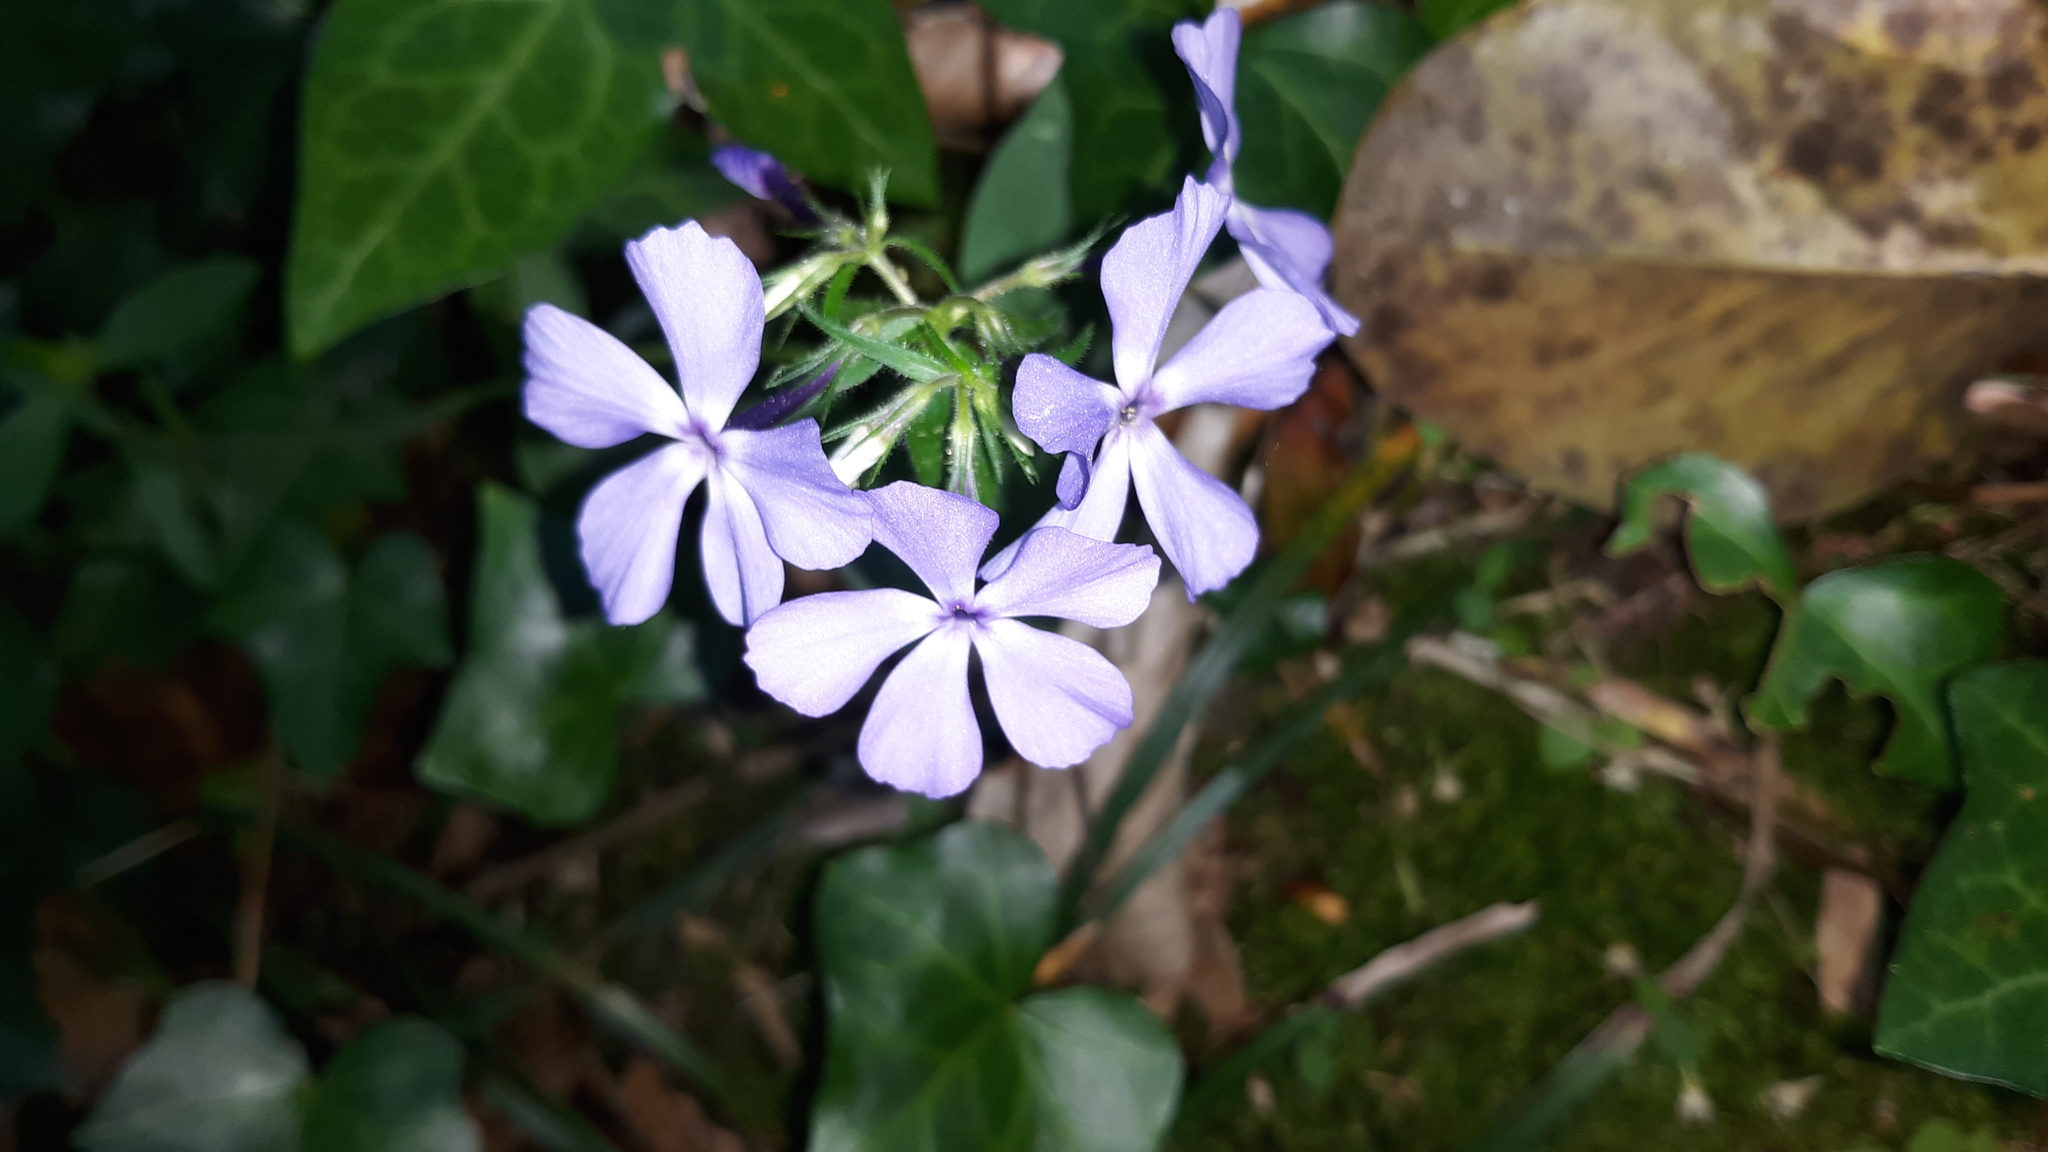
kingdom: Plantae
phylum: Tracheophyta
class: Magnoliopsida
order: Ericales
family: Polemoniaceae
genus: Phlox
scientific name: Phlox divaricata
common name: Blue phlox
